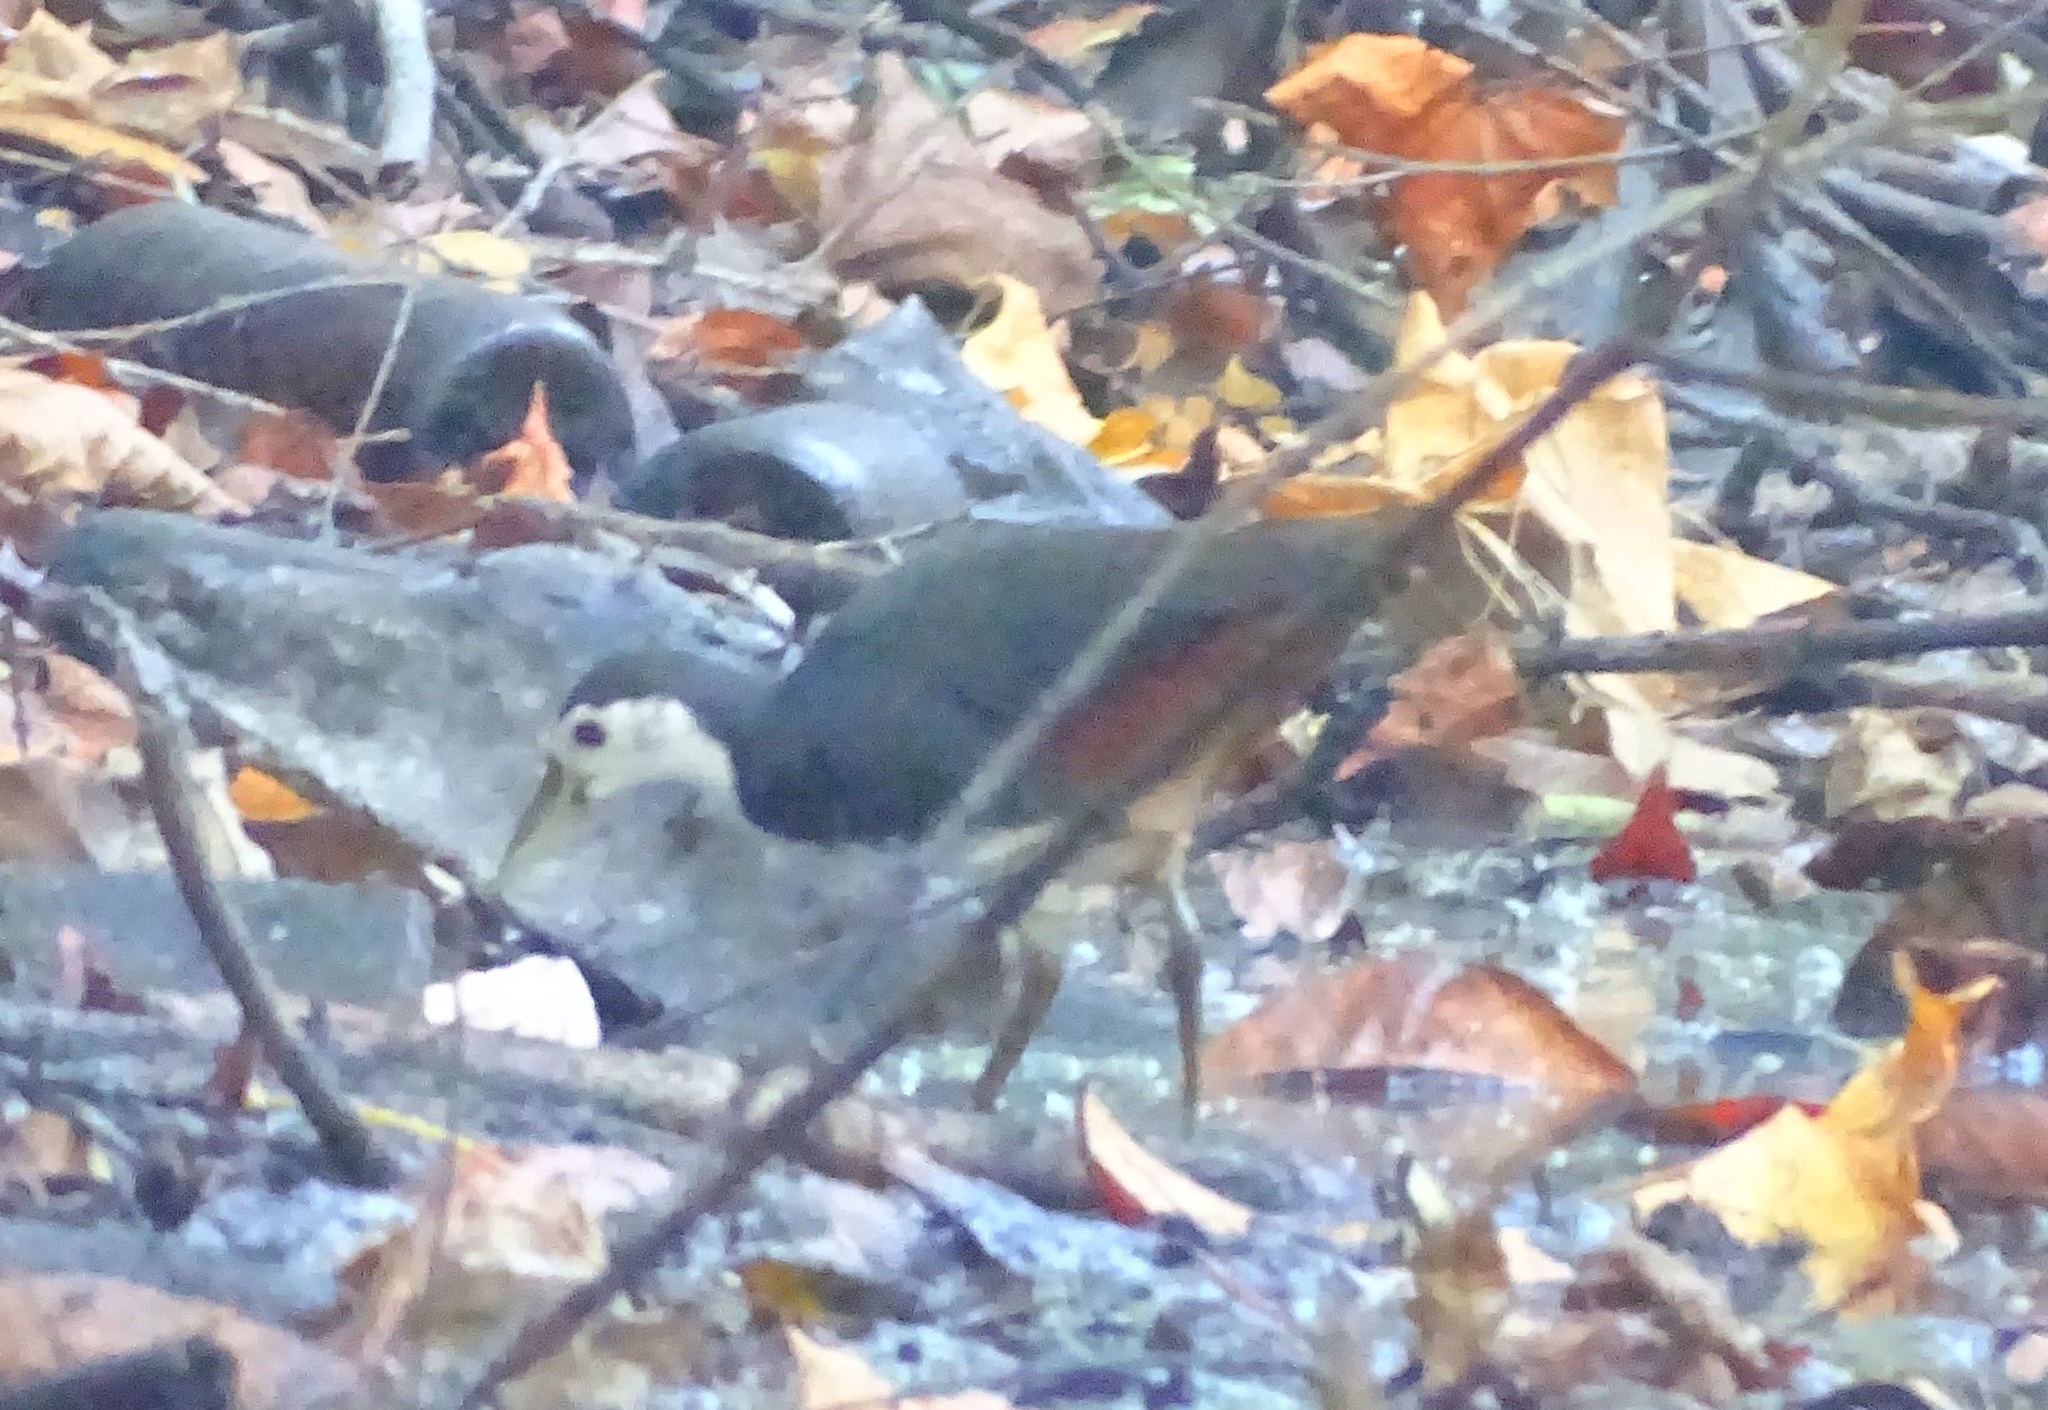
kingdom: Animalia
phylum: Chordata
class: Aves
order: Gruiformes
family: Rallidae
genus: Amaurornis
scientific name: Amaurornis phoenicurus
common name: White-breasted waterhen
